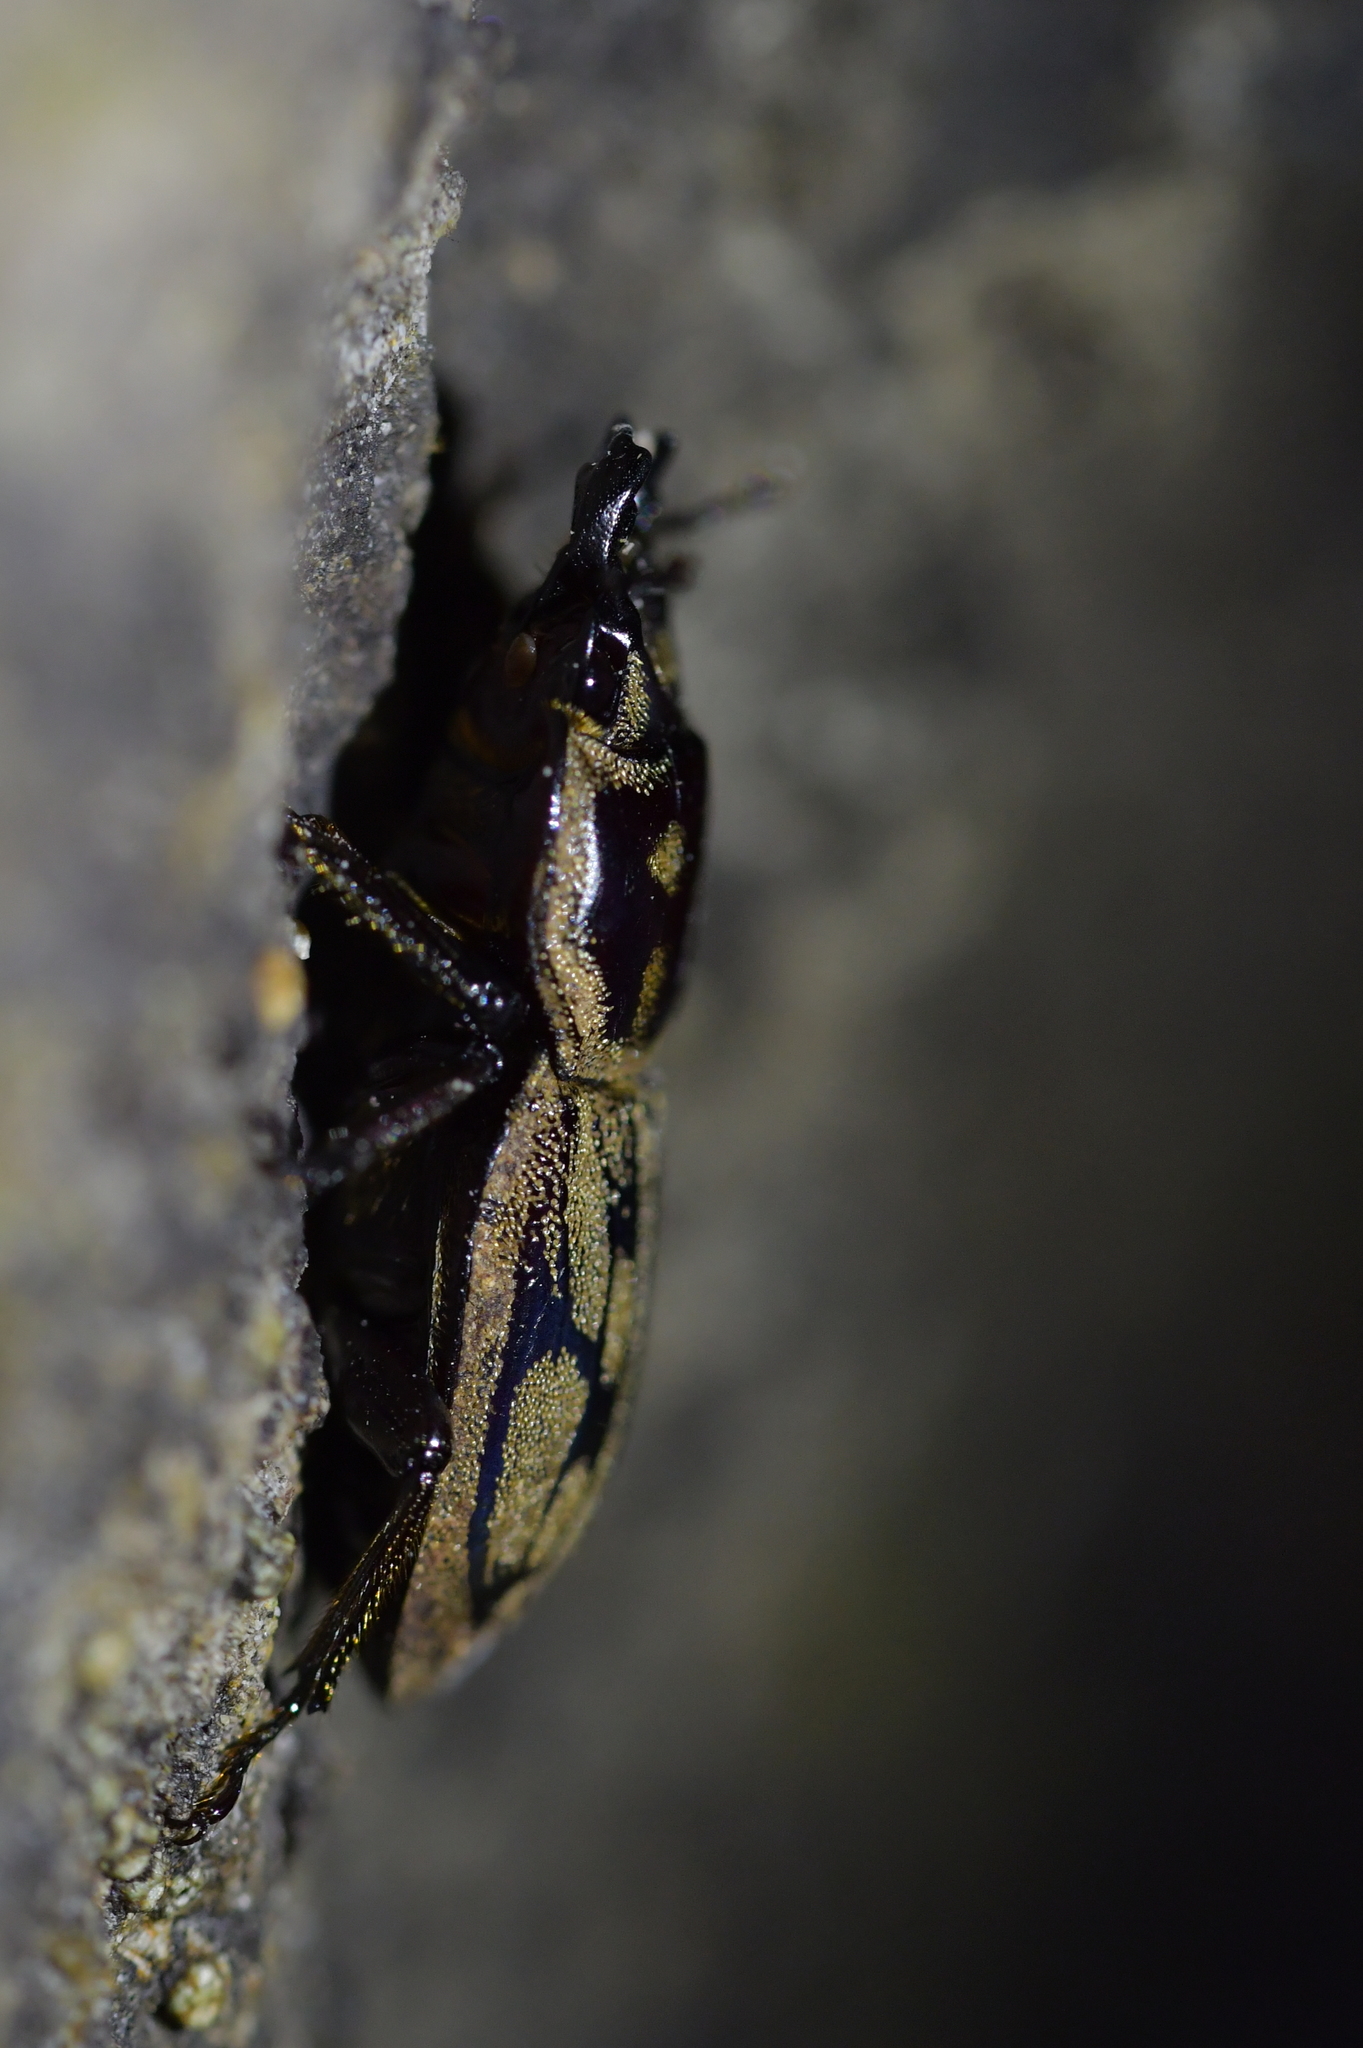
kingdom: Animalia
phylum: Arthropoda
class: Insecta
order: Coleoptera
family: Lucanidae
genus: Paralissotes
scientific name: Paralissotes reticulatus
